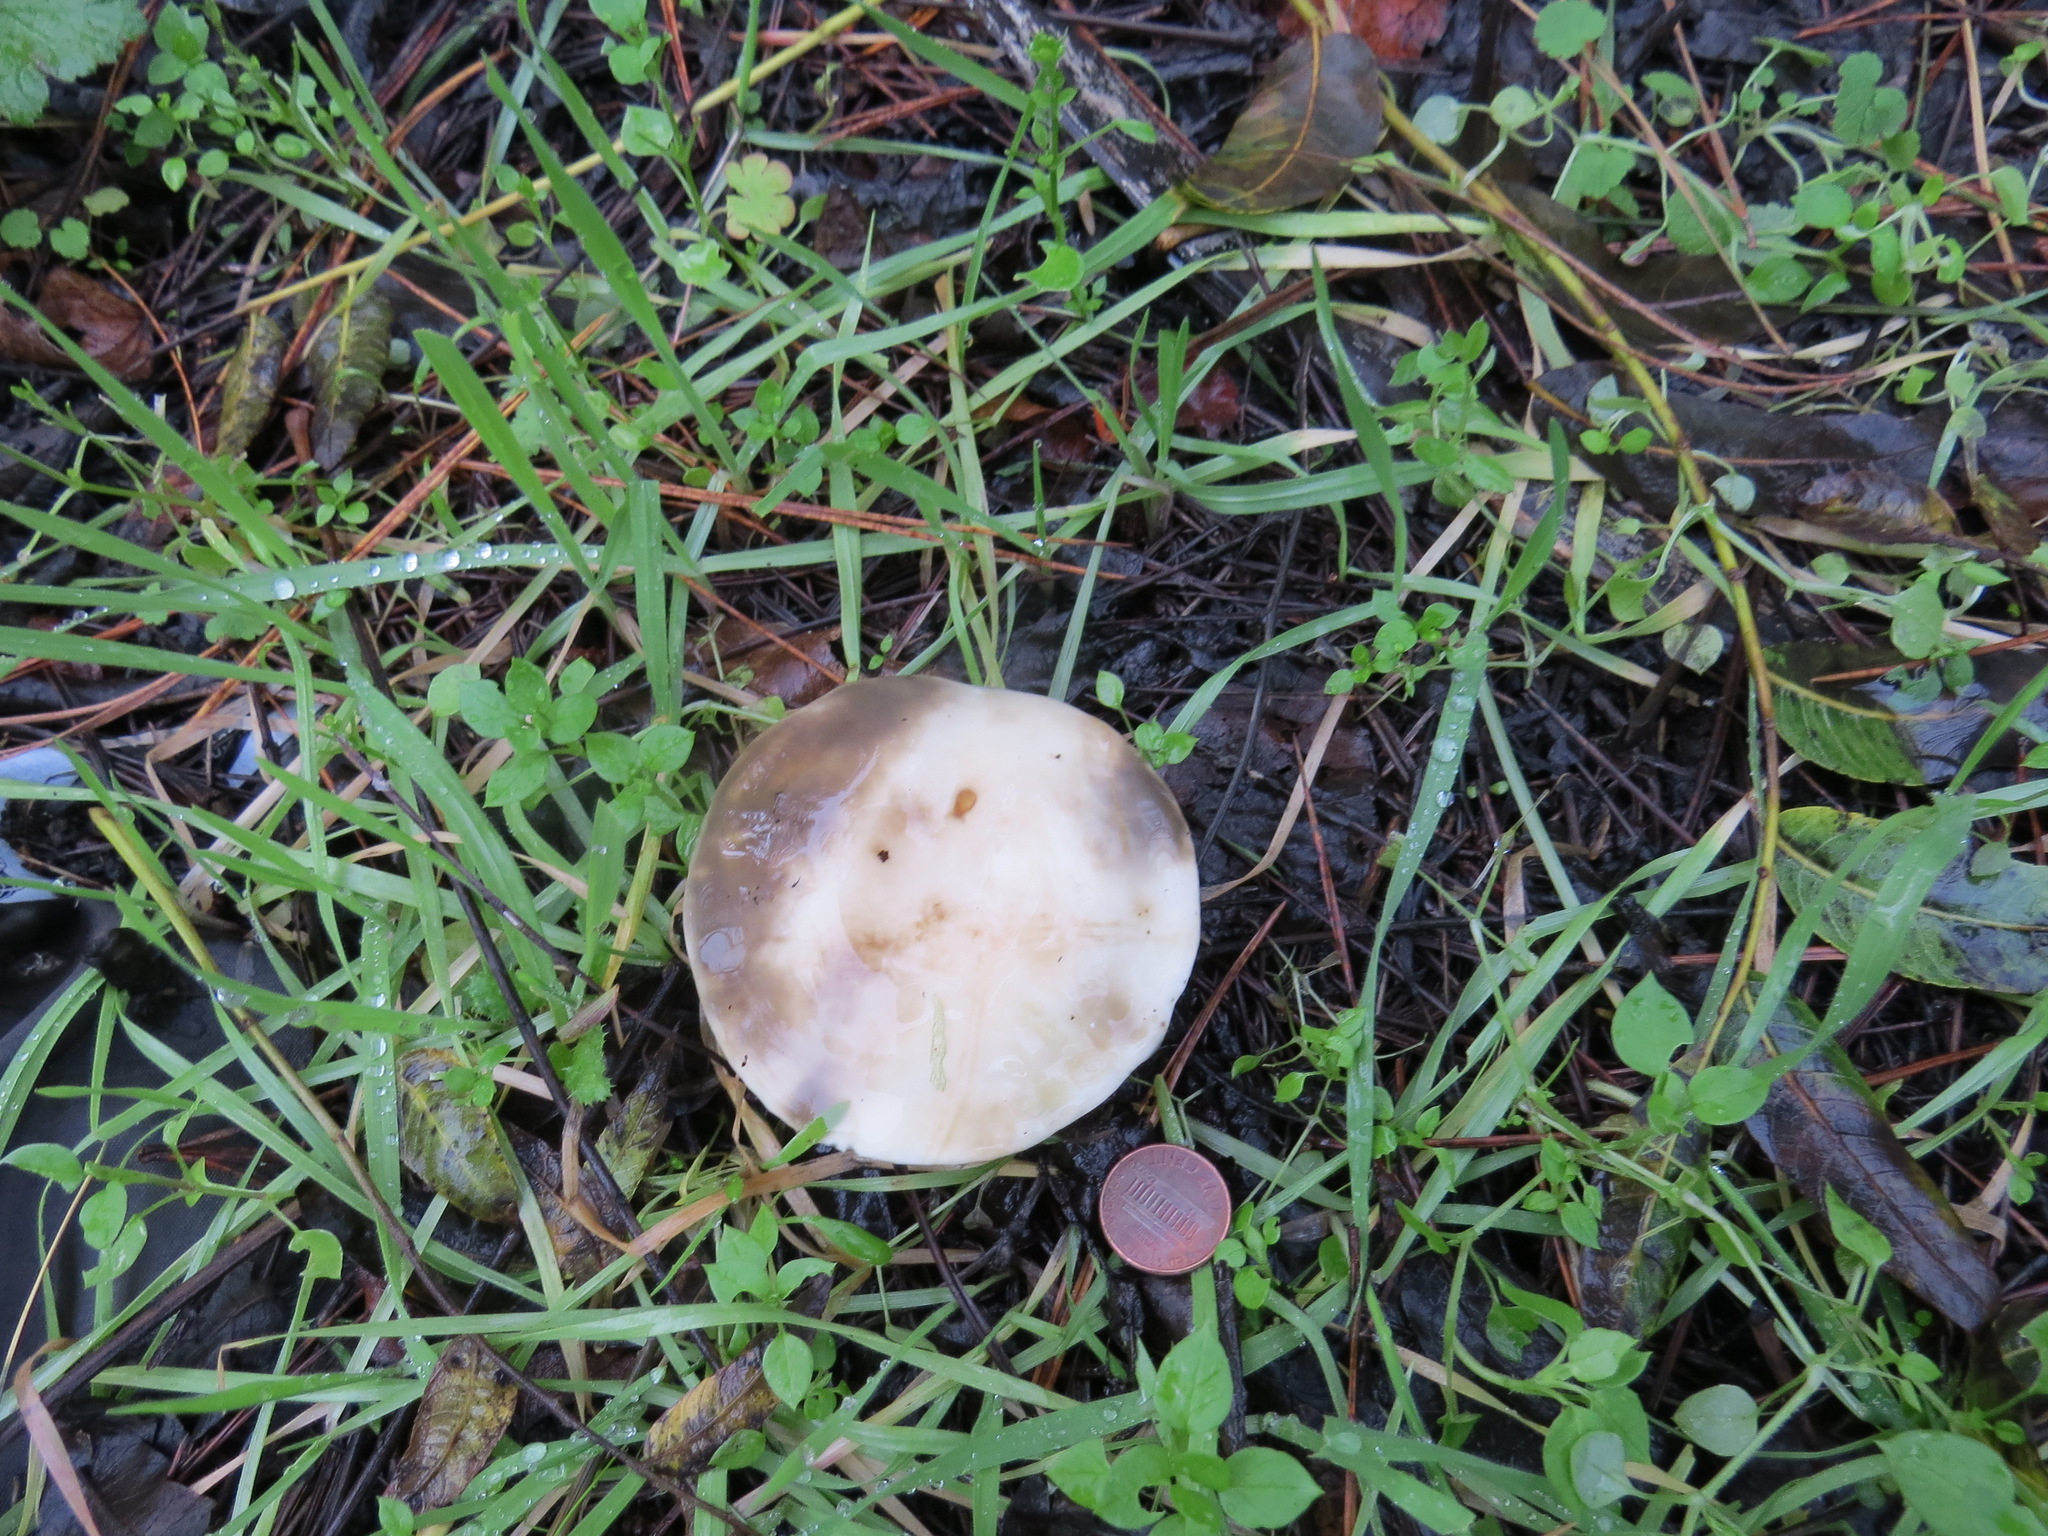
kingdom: Fungi
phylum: Basidiomycota
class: Agaricomycetes
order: Boletales
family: Suillaceae
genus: Suillus
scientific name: Suillus pungens
